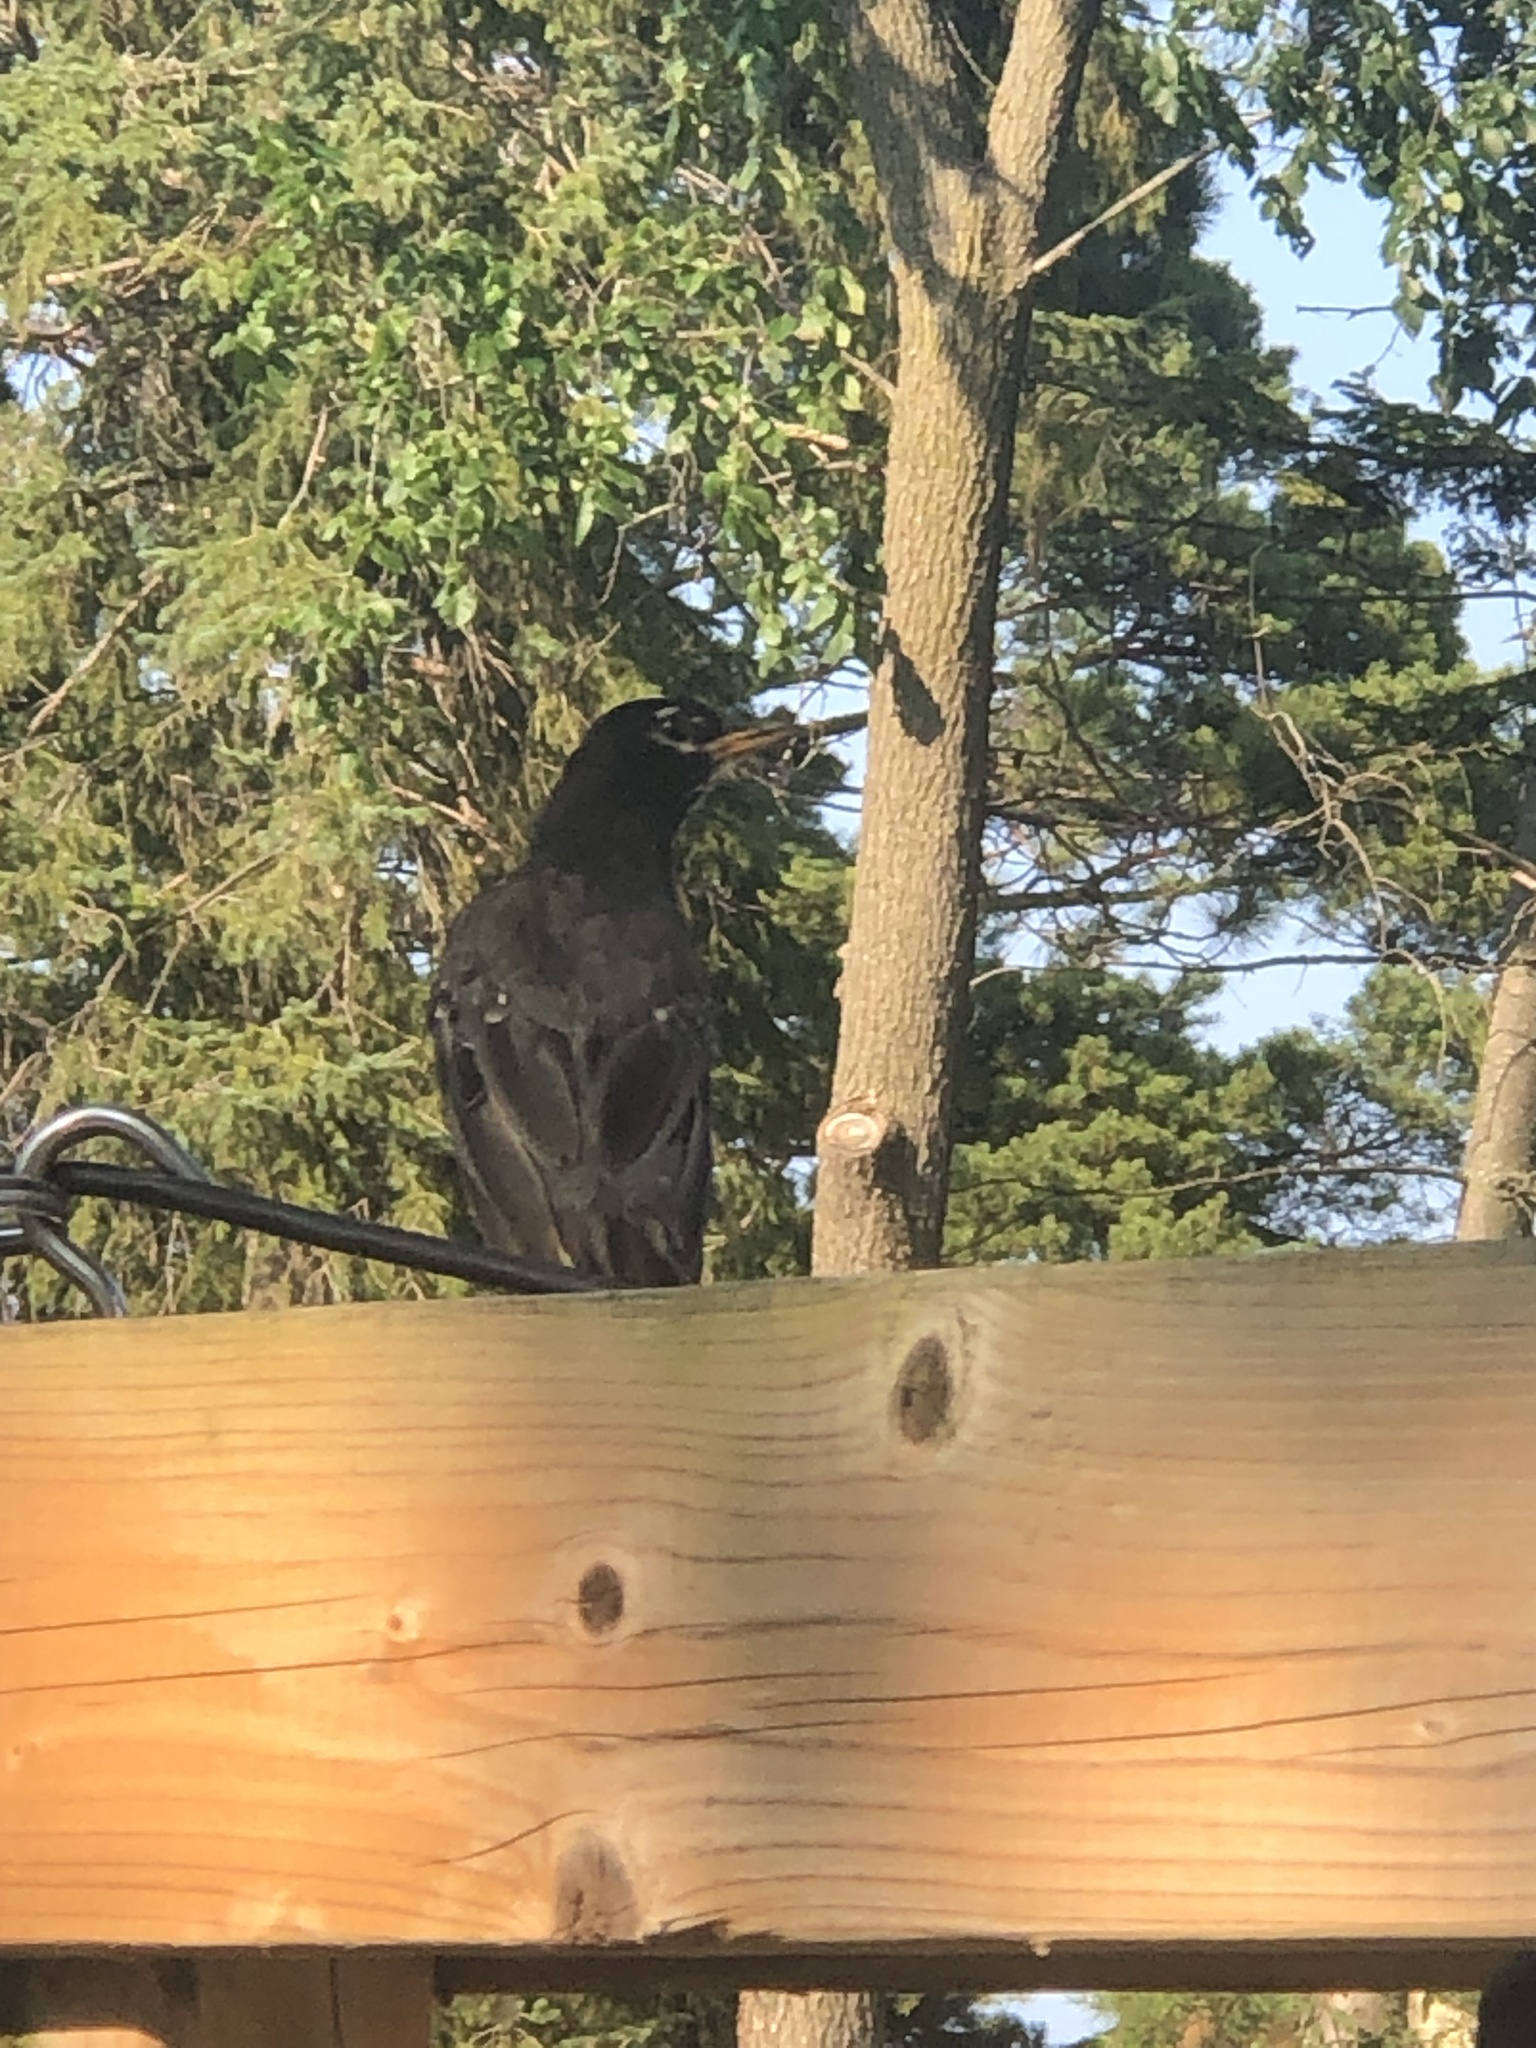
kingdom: Animalia
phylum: Chordata
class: Aves
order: Passeriformes
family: Turdidae
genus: Turdus
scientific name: Turdus migratorius
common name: American robin
